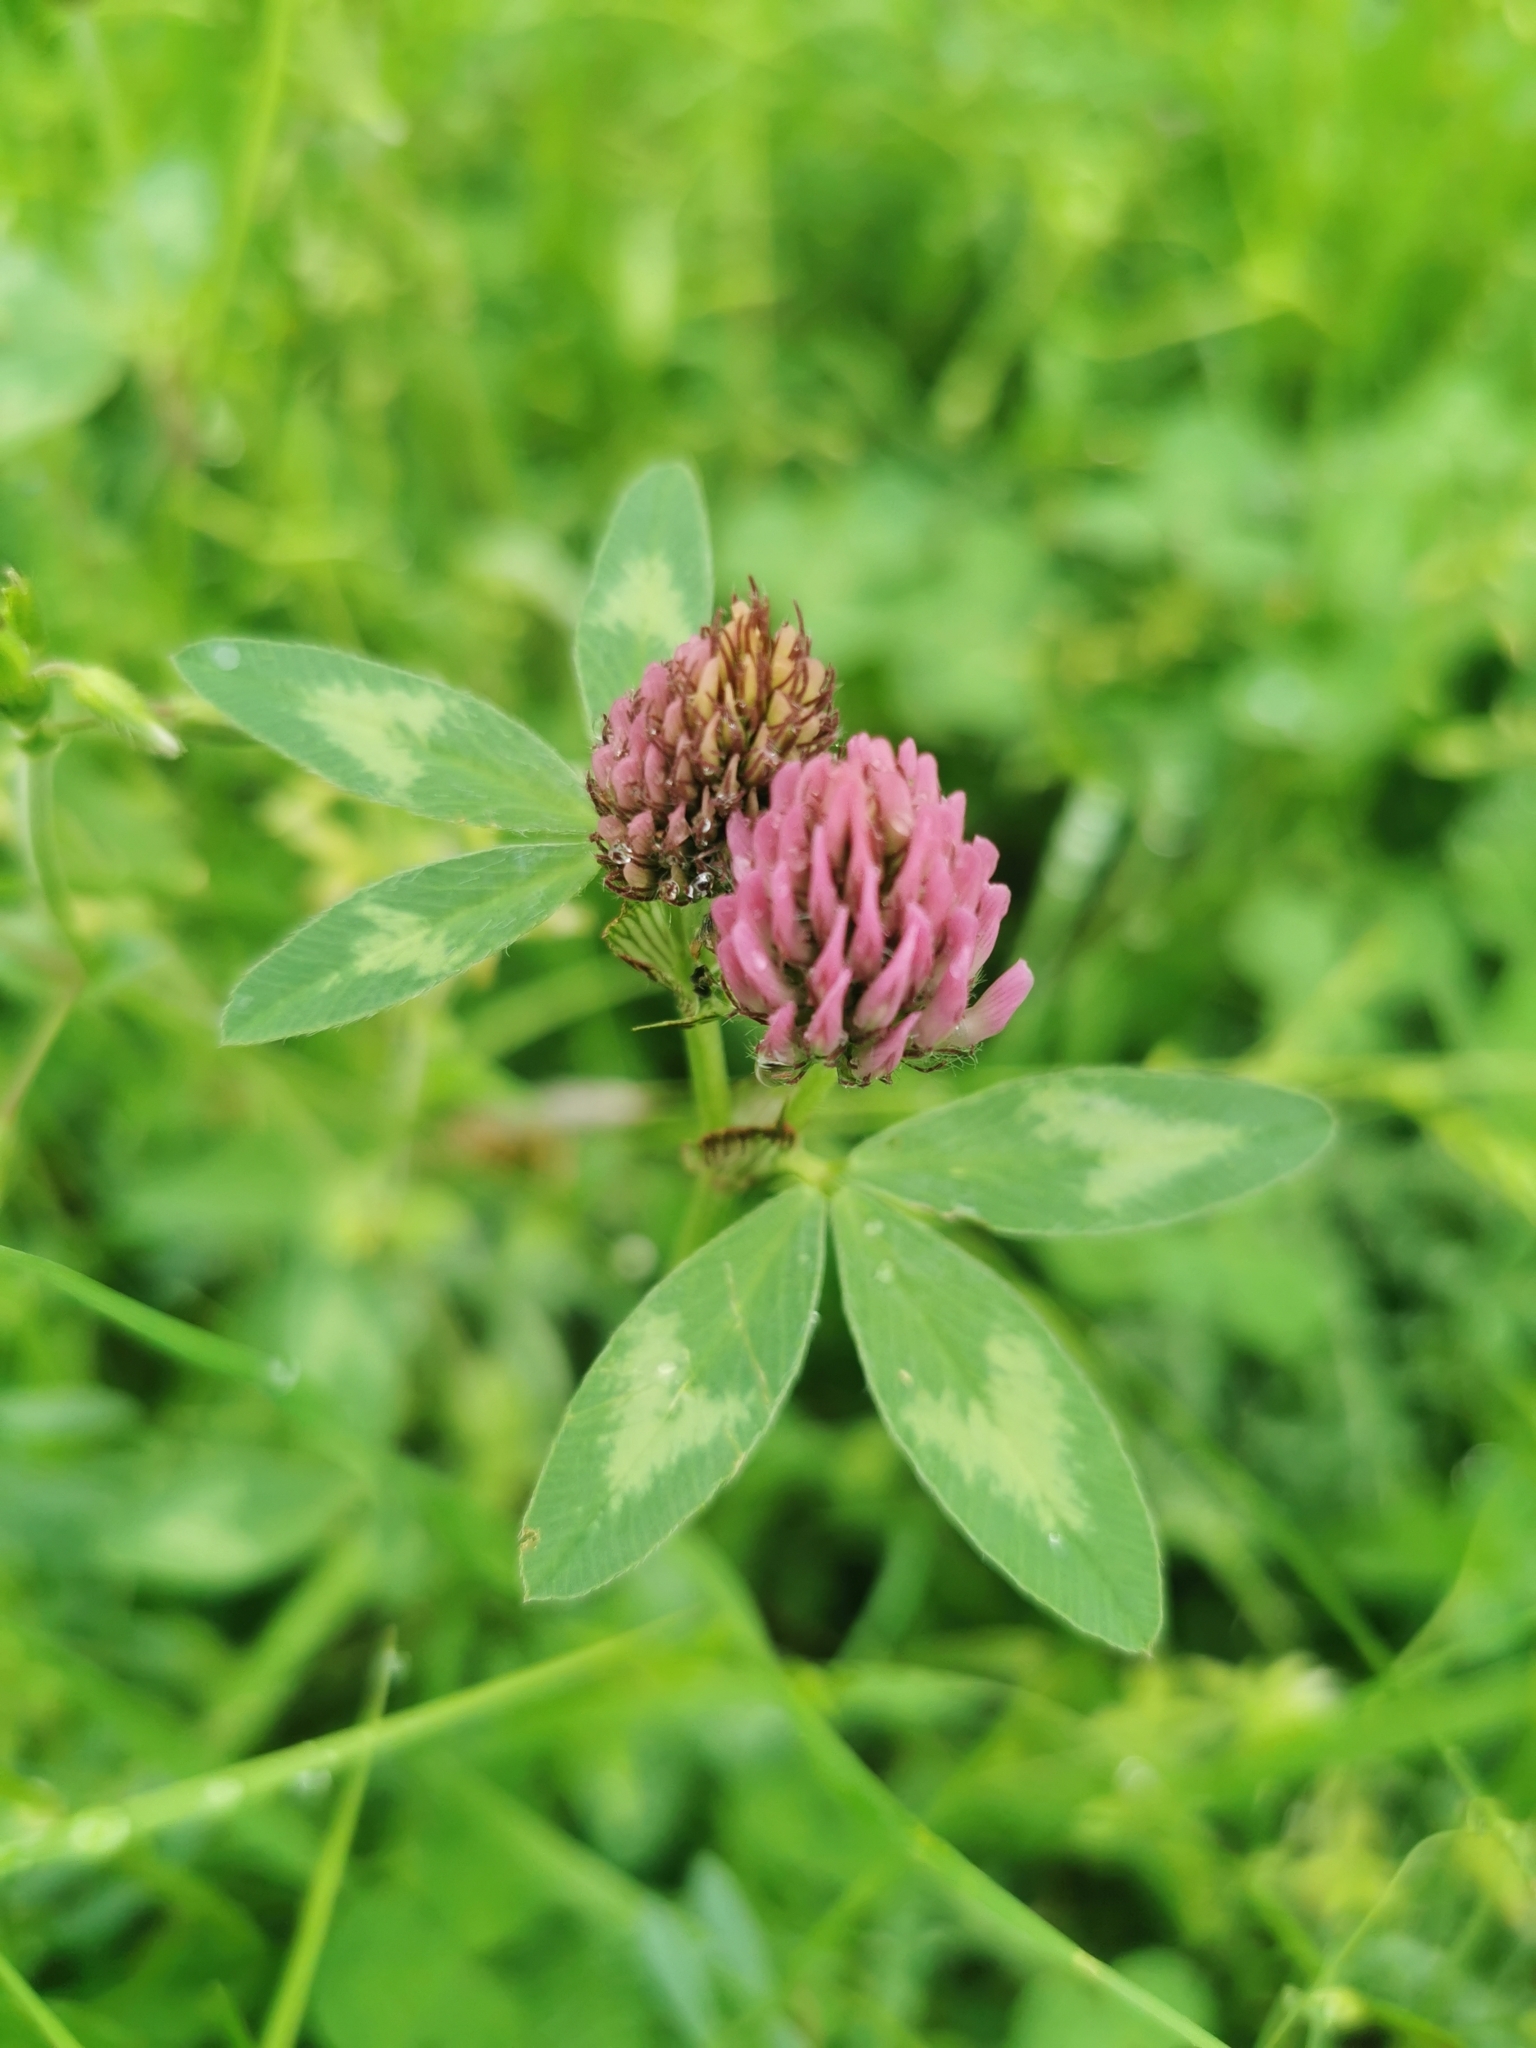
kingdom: Plantae
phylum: Tracheophyta
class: Magnoliopsida
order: Fabales
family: Fabaceae
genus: Trifolium
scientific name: Trifolium pratense
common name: Red clover
